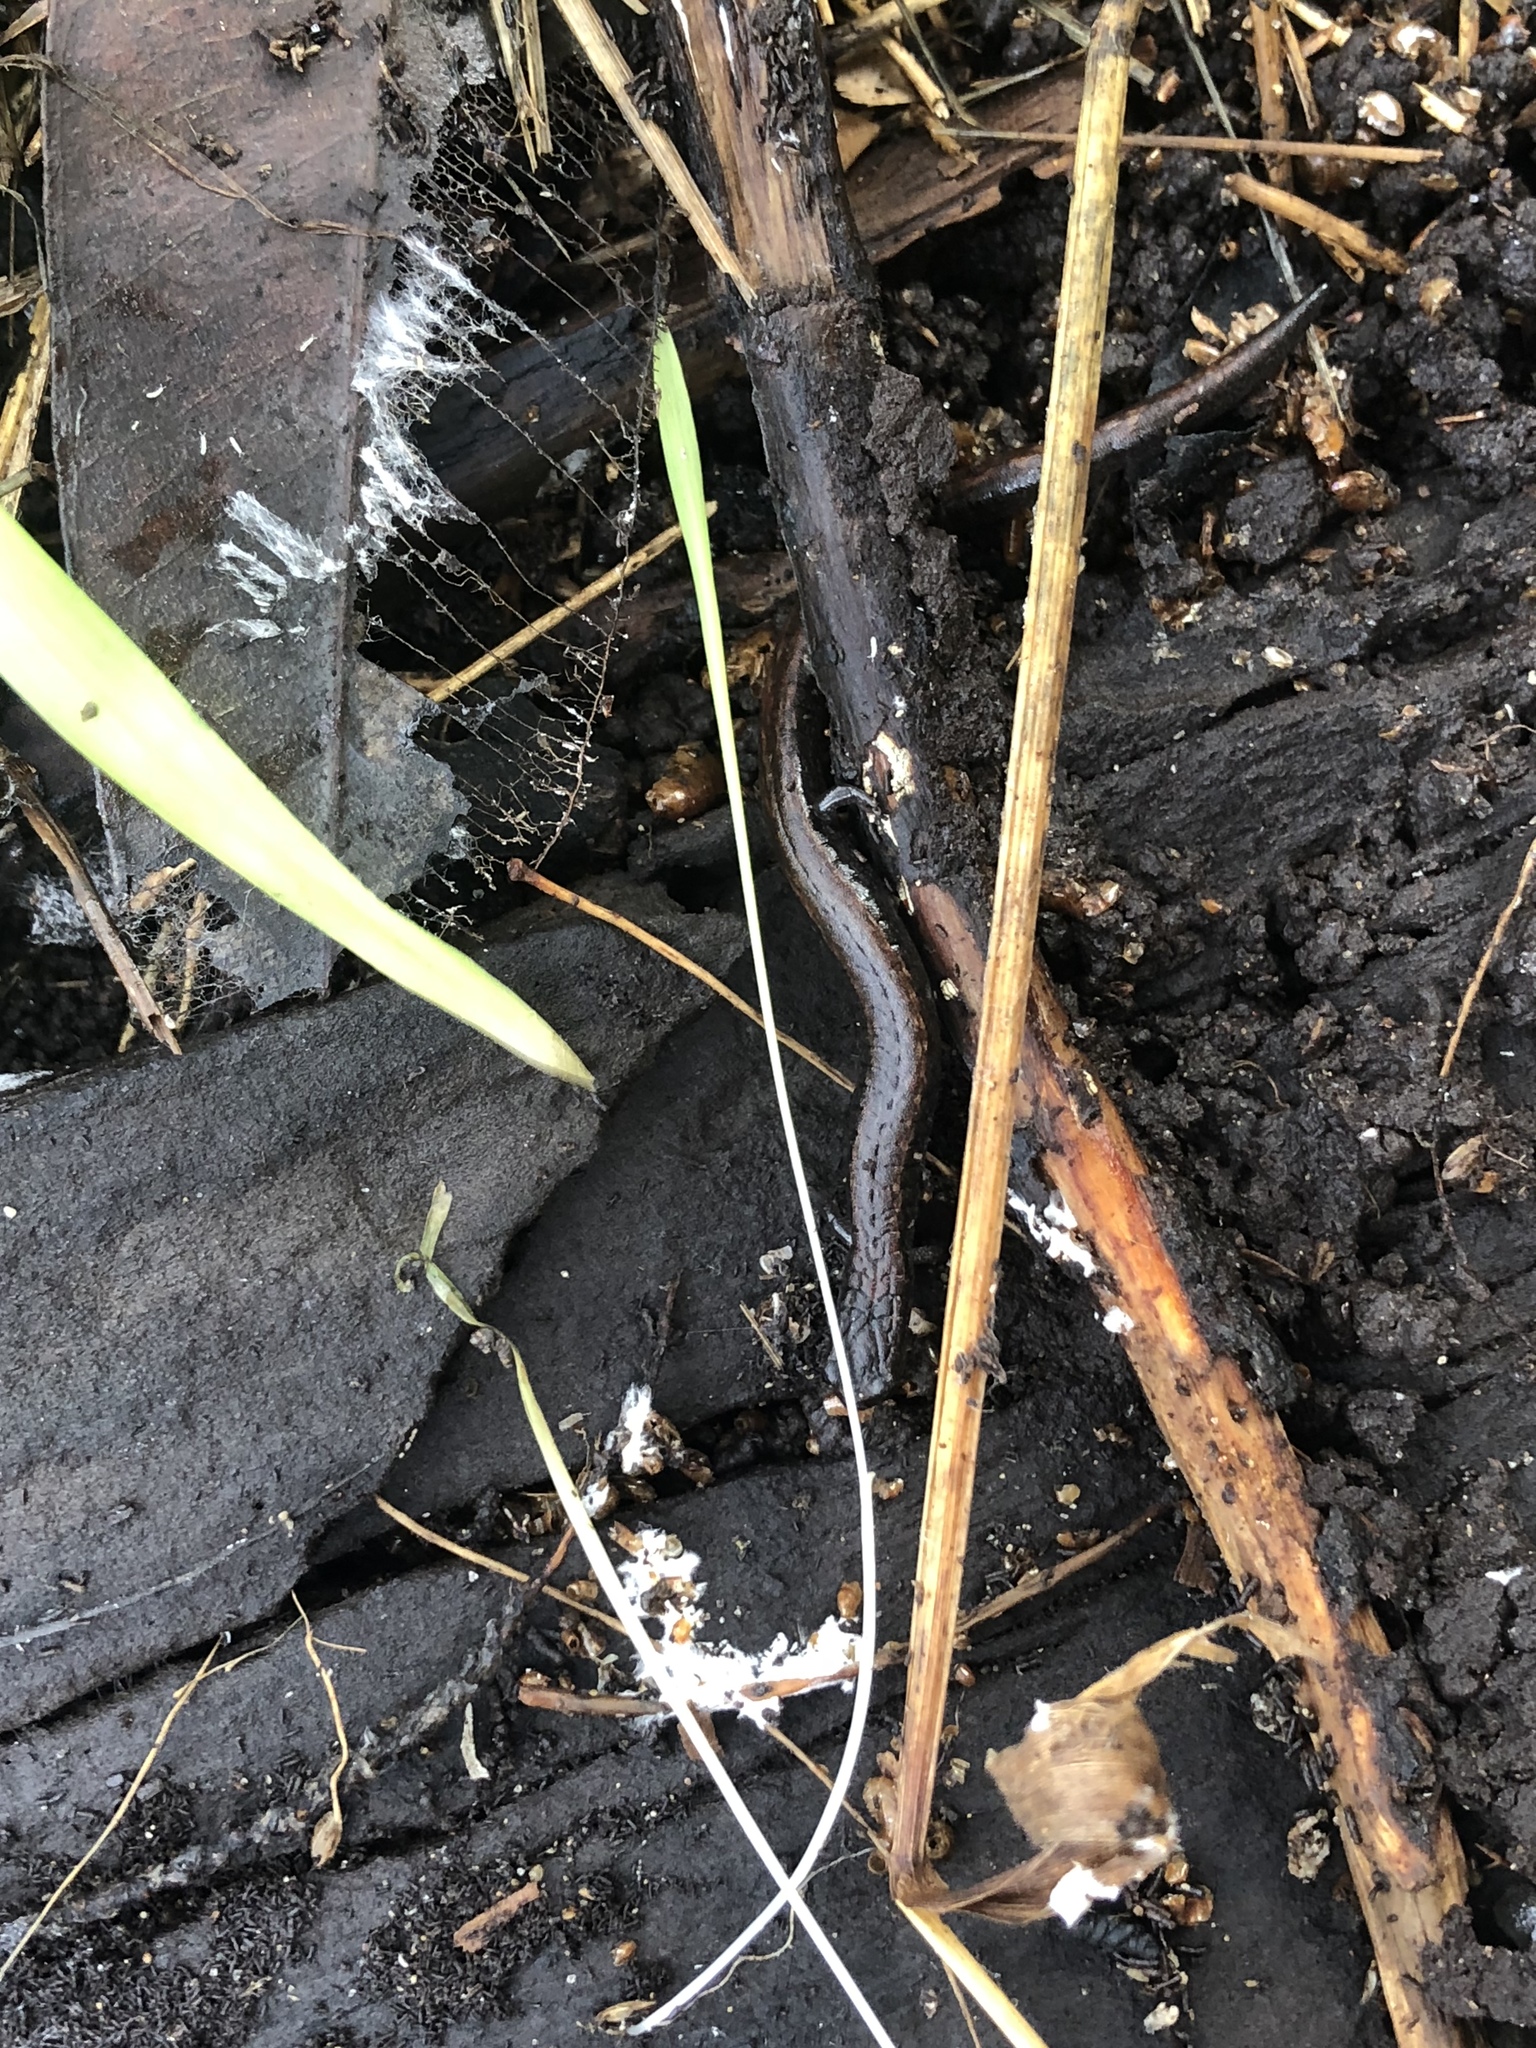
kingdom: Animalia
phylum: Chordata
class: Amphibia
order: Caudata
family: Plethodontidae
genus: Batrachoseps
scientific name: Batrachoseps attenuatus
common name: California slender salamander
